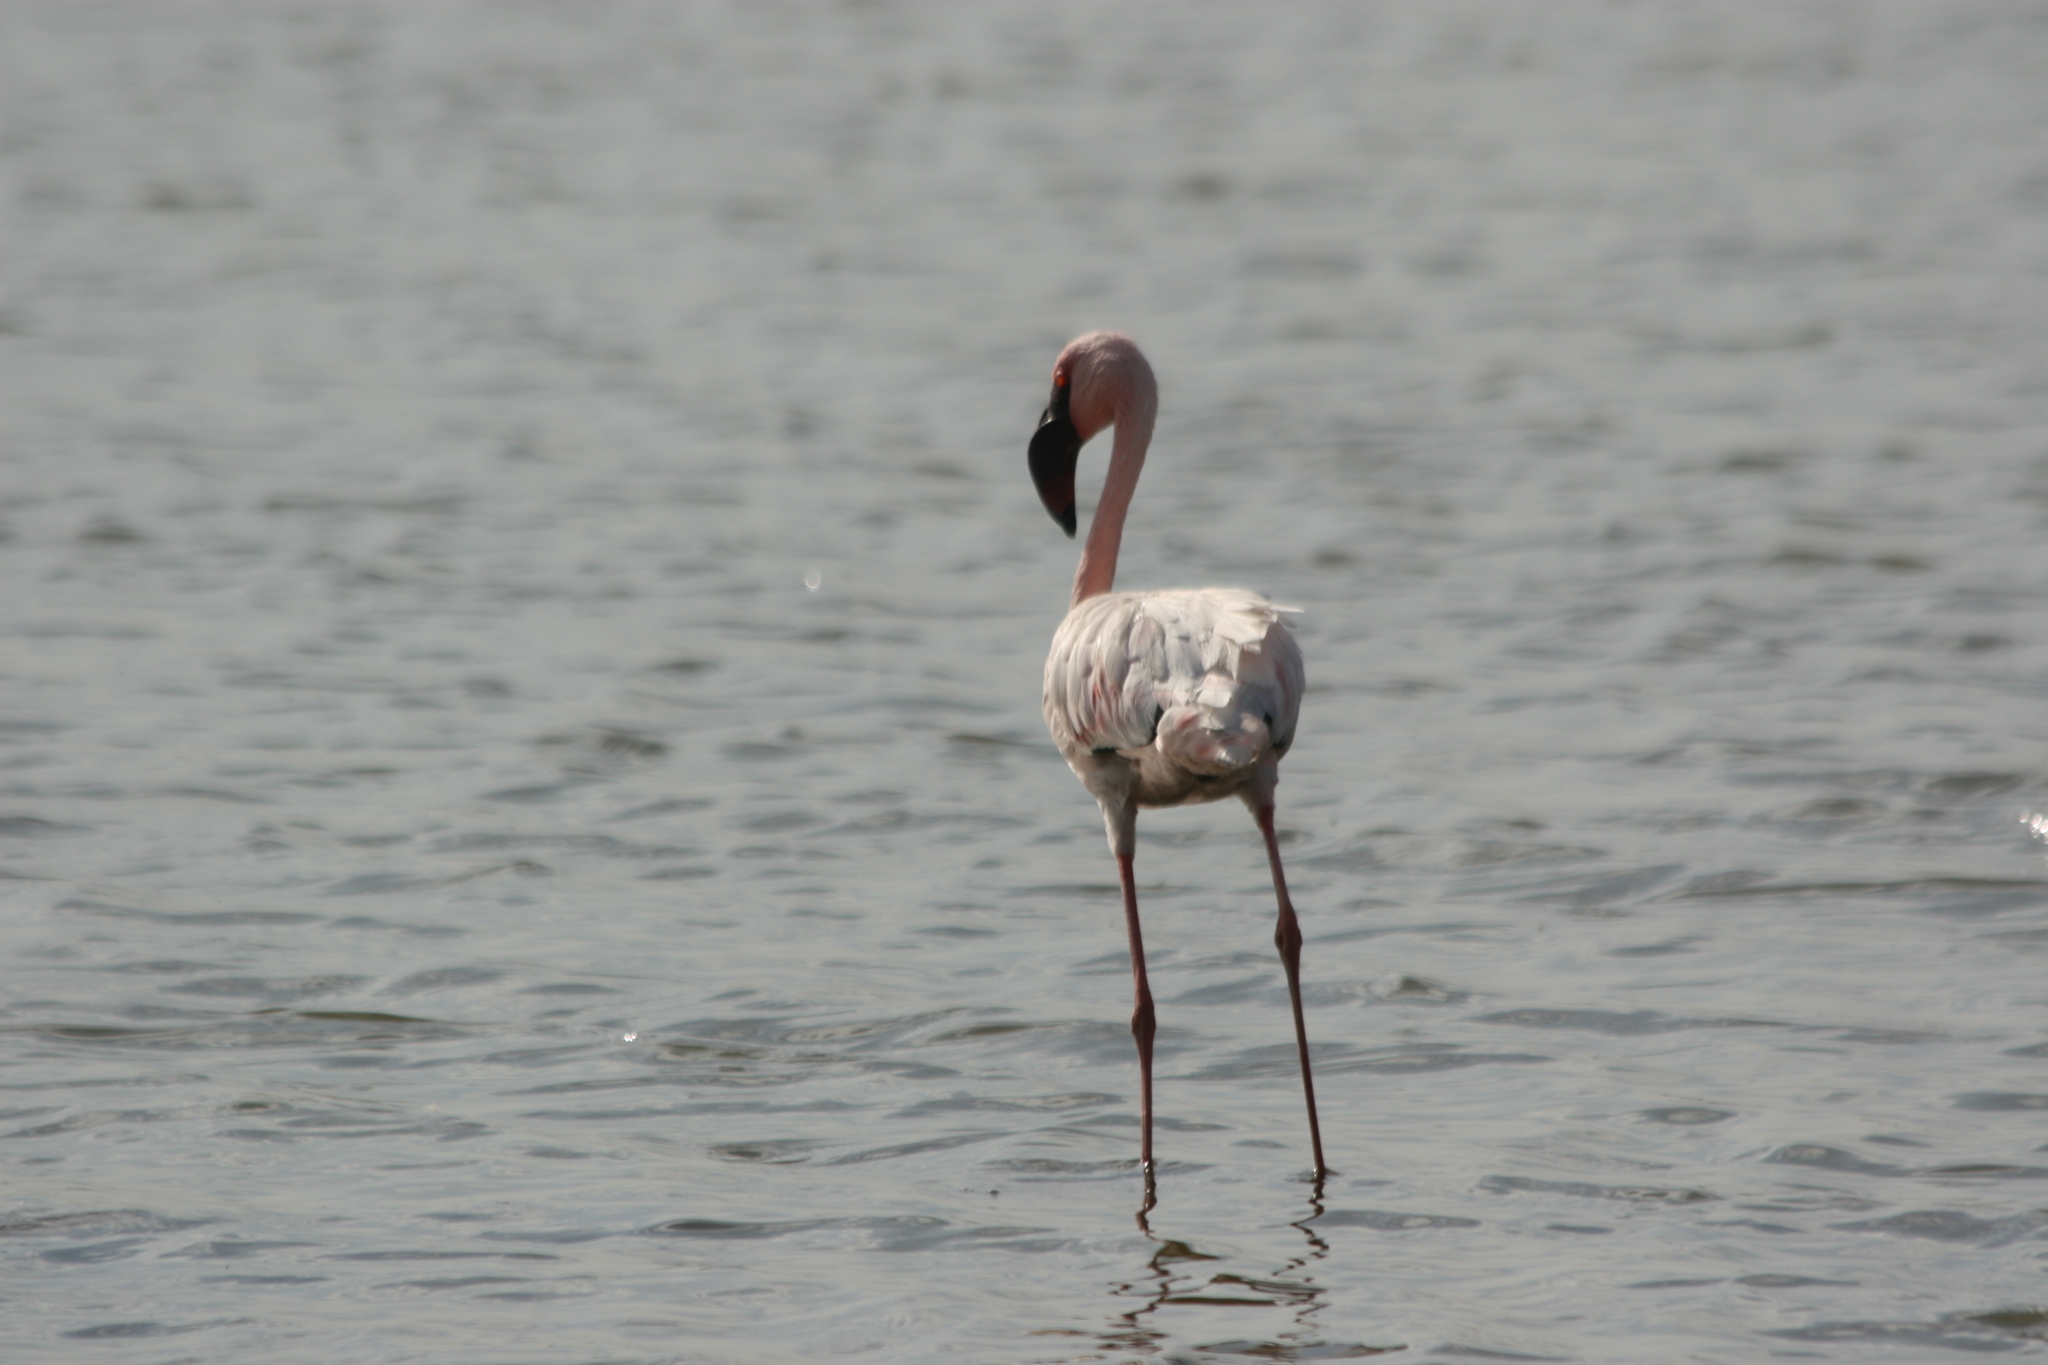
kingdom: Animalia
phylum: Chordata
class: Aves
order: Phoenicopteriformes
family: Phoenicopteridae
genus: Phoeniconaias
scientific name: Phoeniconaias minor
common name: Lesser flamingo
